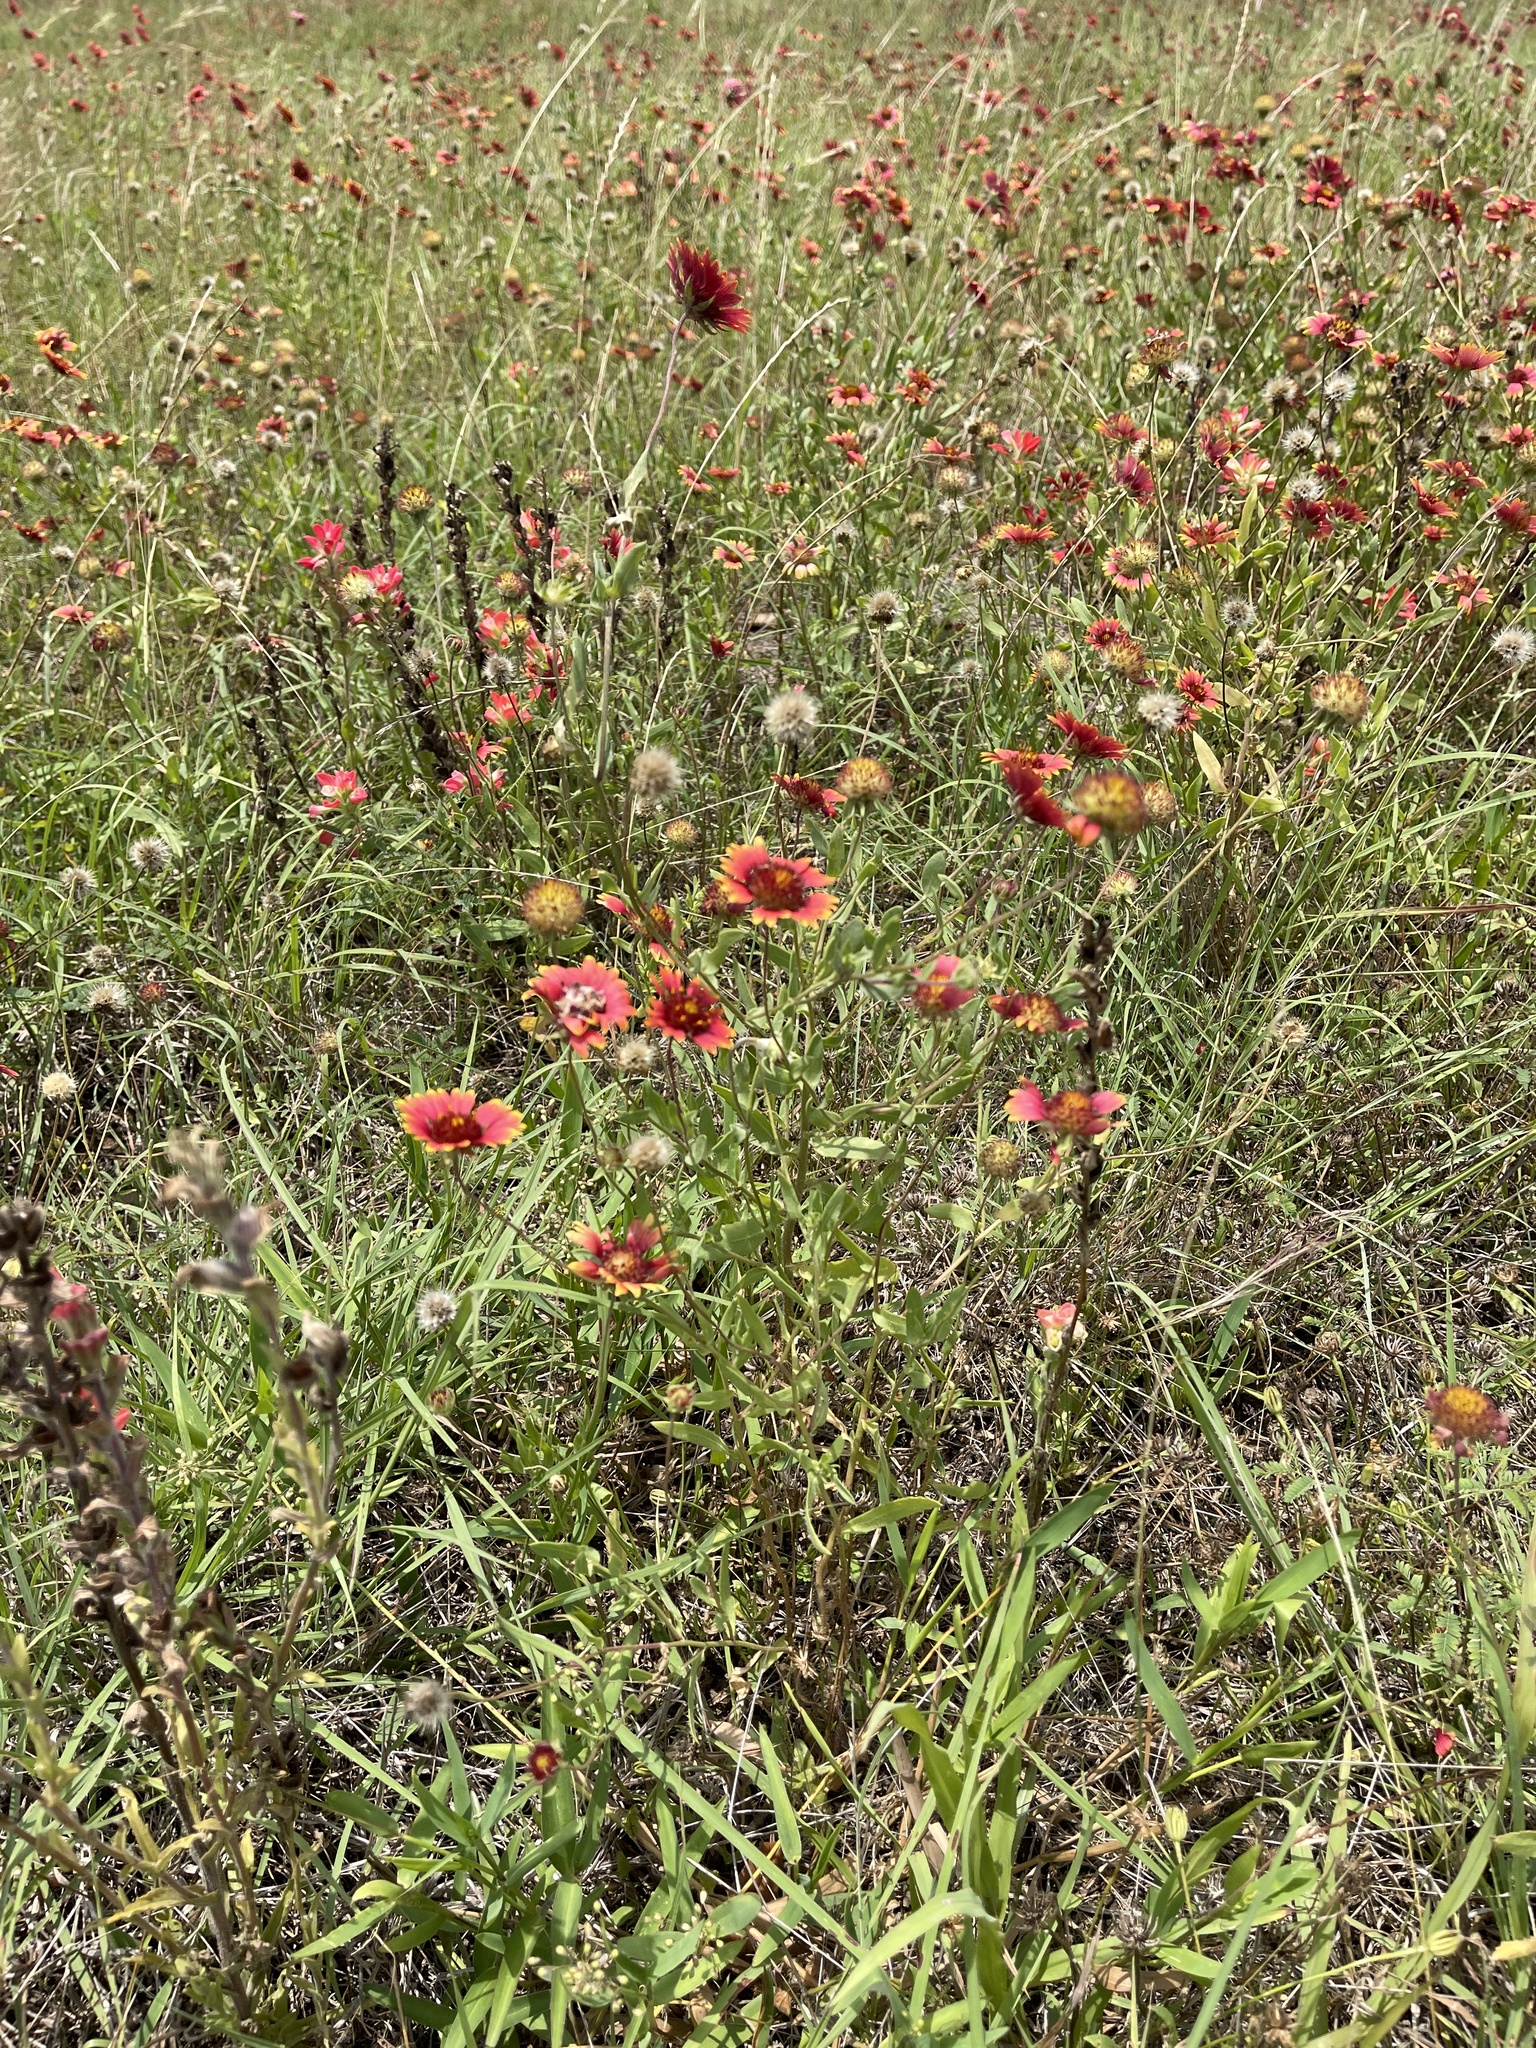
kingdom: Plantae
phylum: Tracheophyta
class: Magnoliopsida
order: Asterales
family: Asteraceae
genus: Gaillardia
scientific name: Gaillardia pulchella
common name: Firewheel
